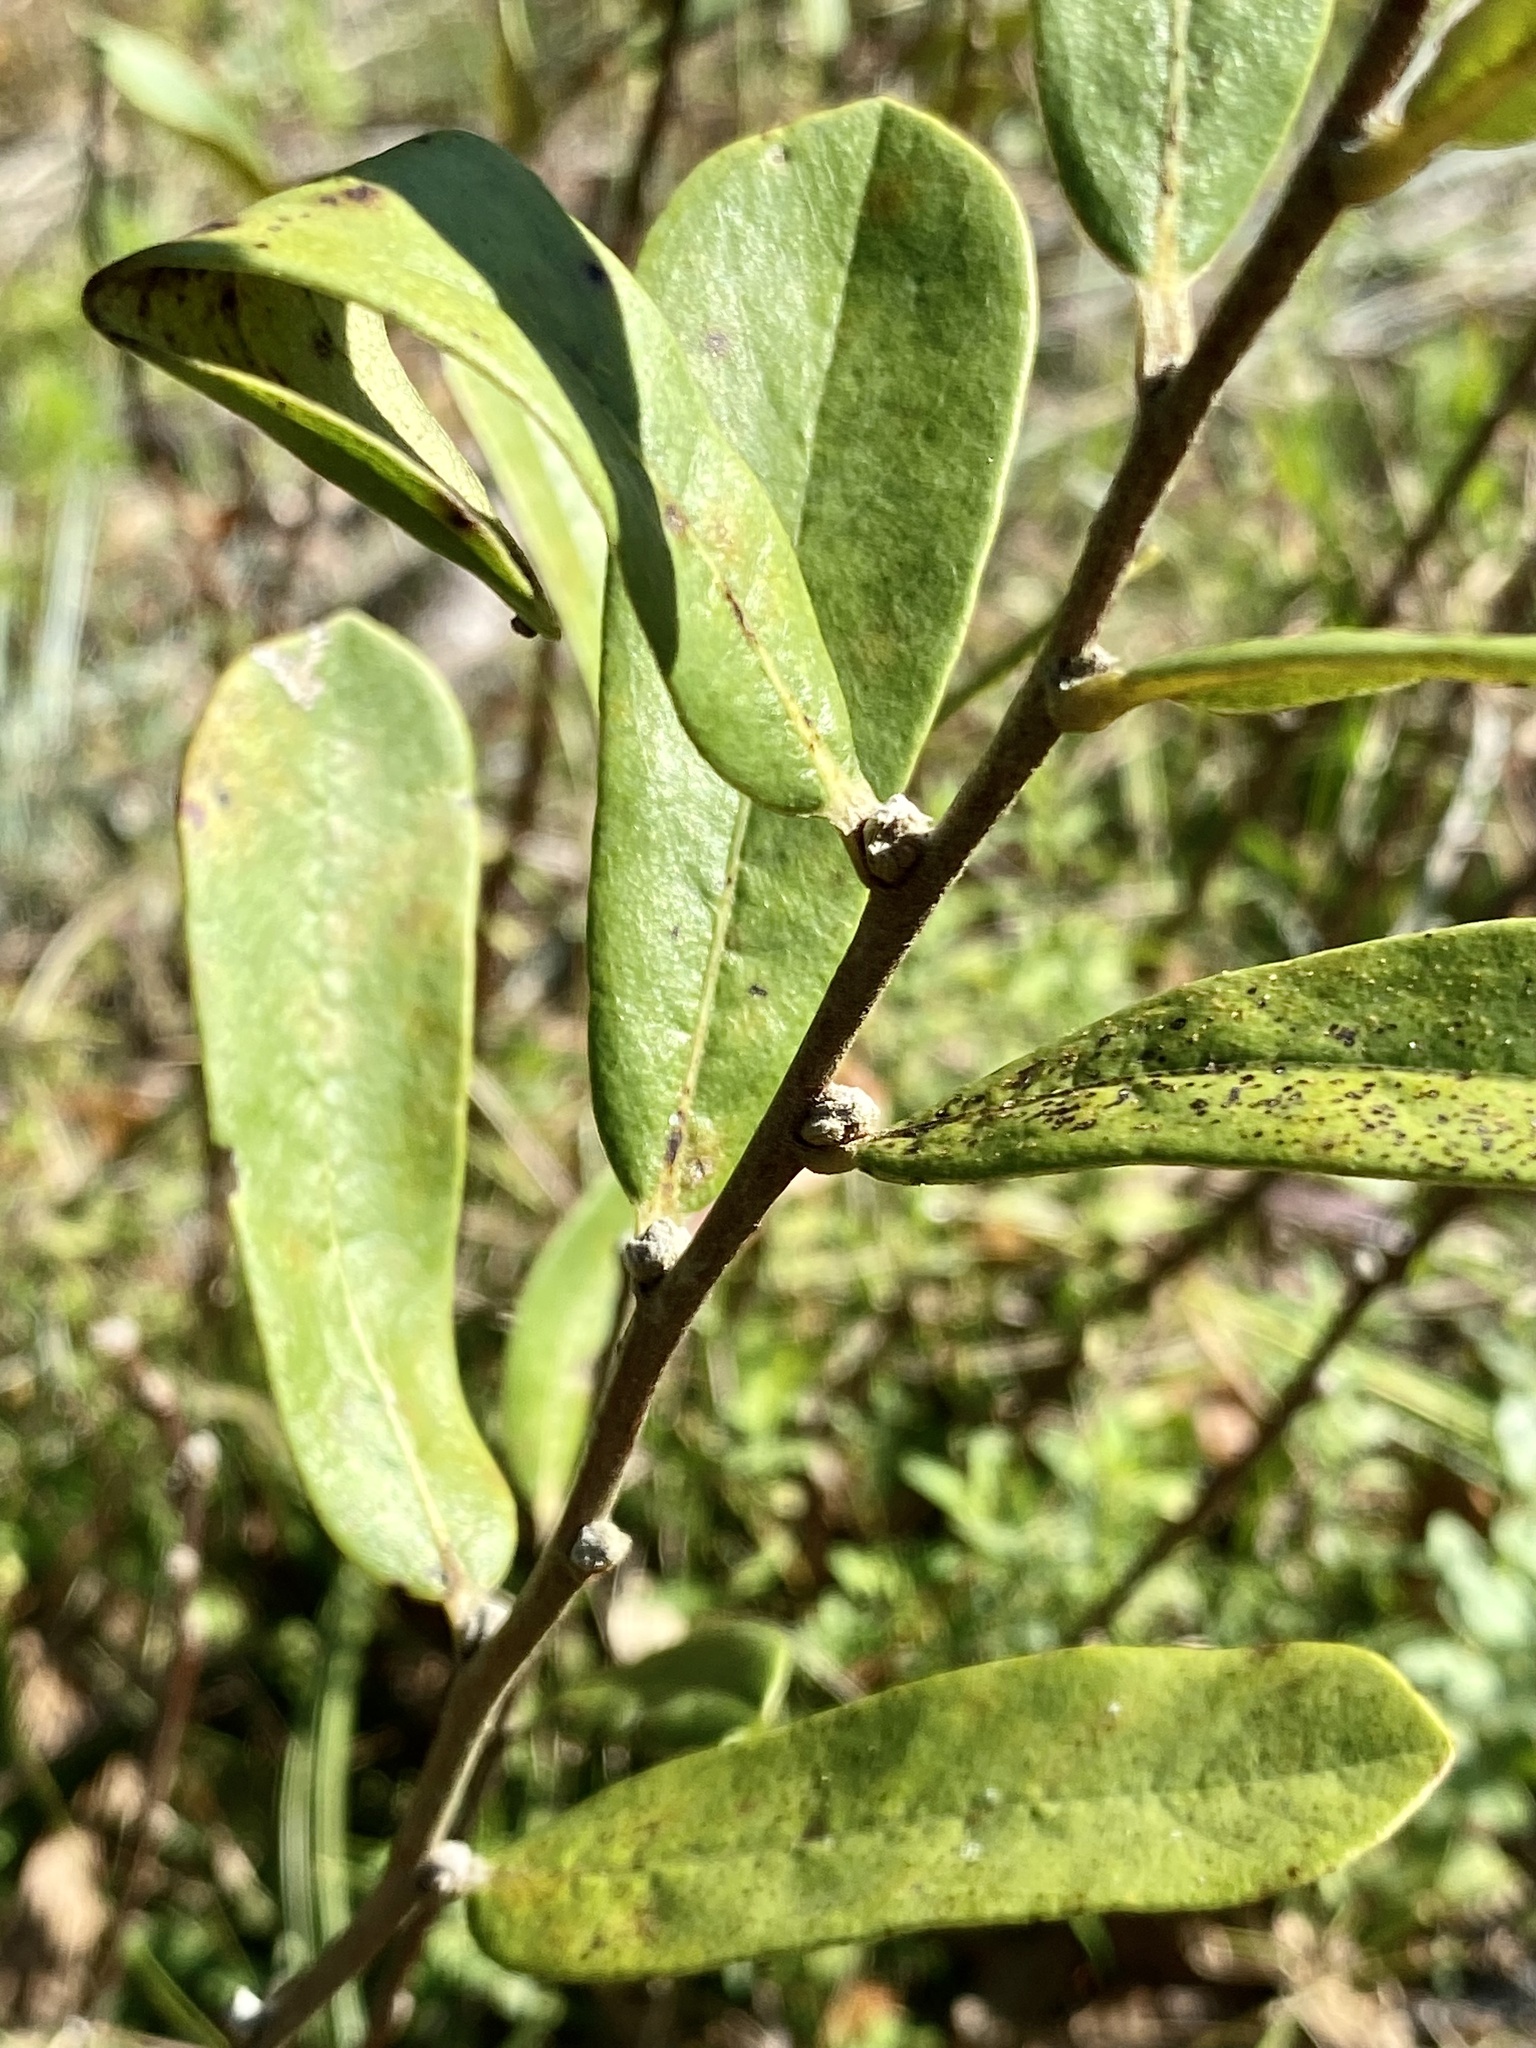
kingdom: Plantae
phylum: Tracheophyta
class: Magnoliopsida
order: Magnoliales
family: Annonaceae
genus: Asimina
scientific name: Asimina reticulata
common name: Flag pawpaw
